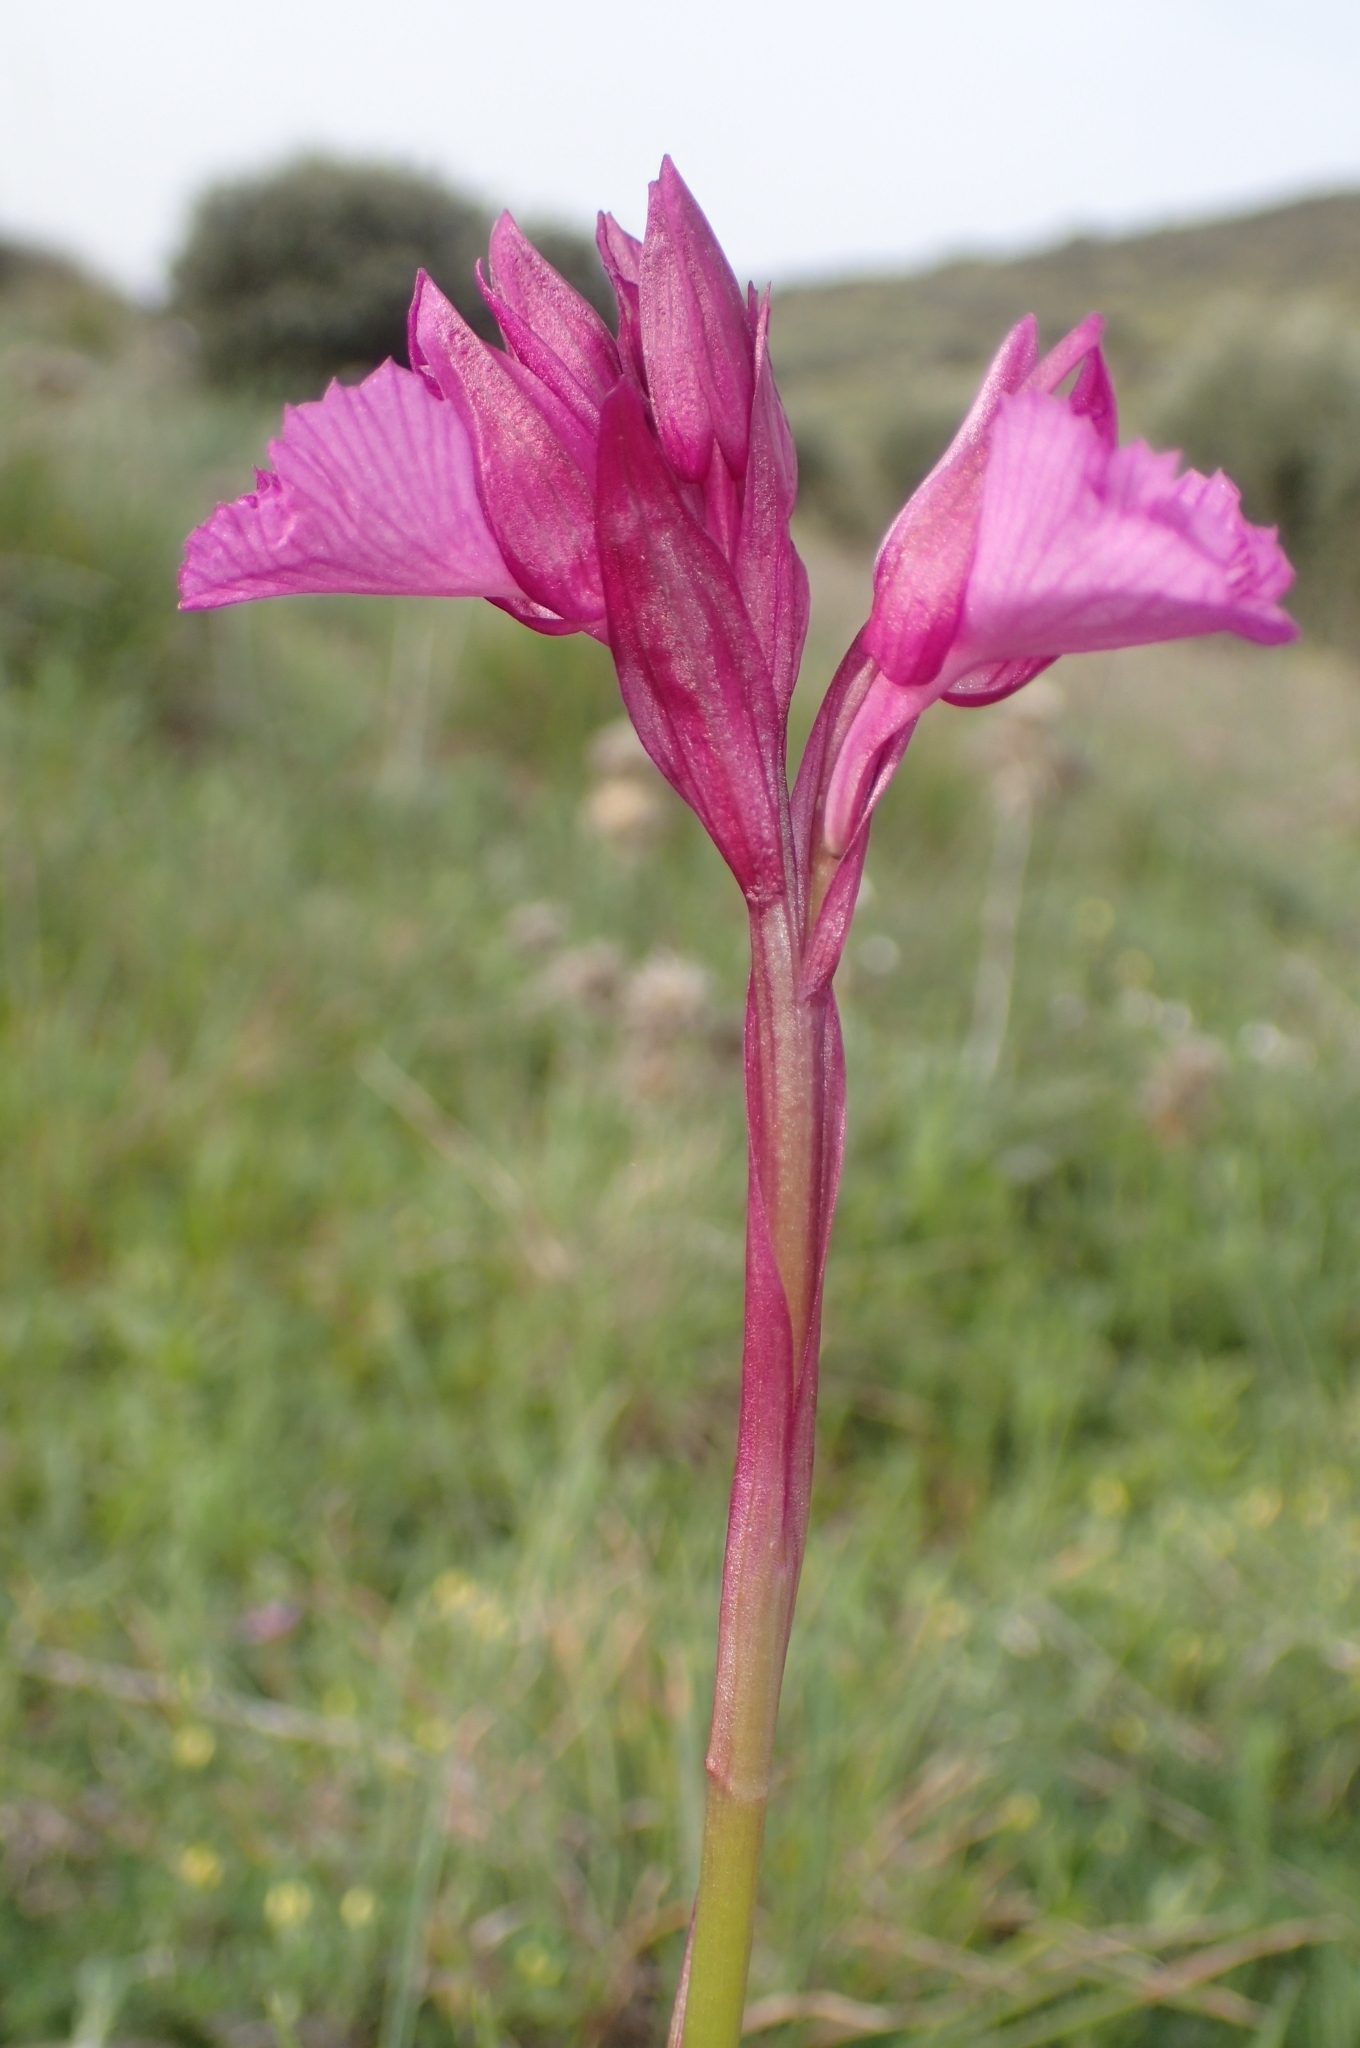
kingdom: Plantae
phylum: Tracheophyta
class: Liliopsida
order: Asparagales
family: Orchidaceae
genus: Anacamptis
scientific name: Anacamptis papilionacea
